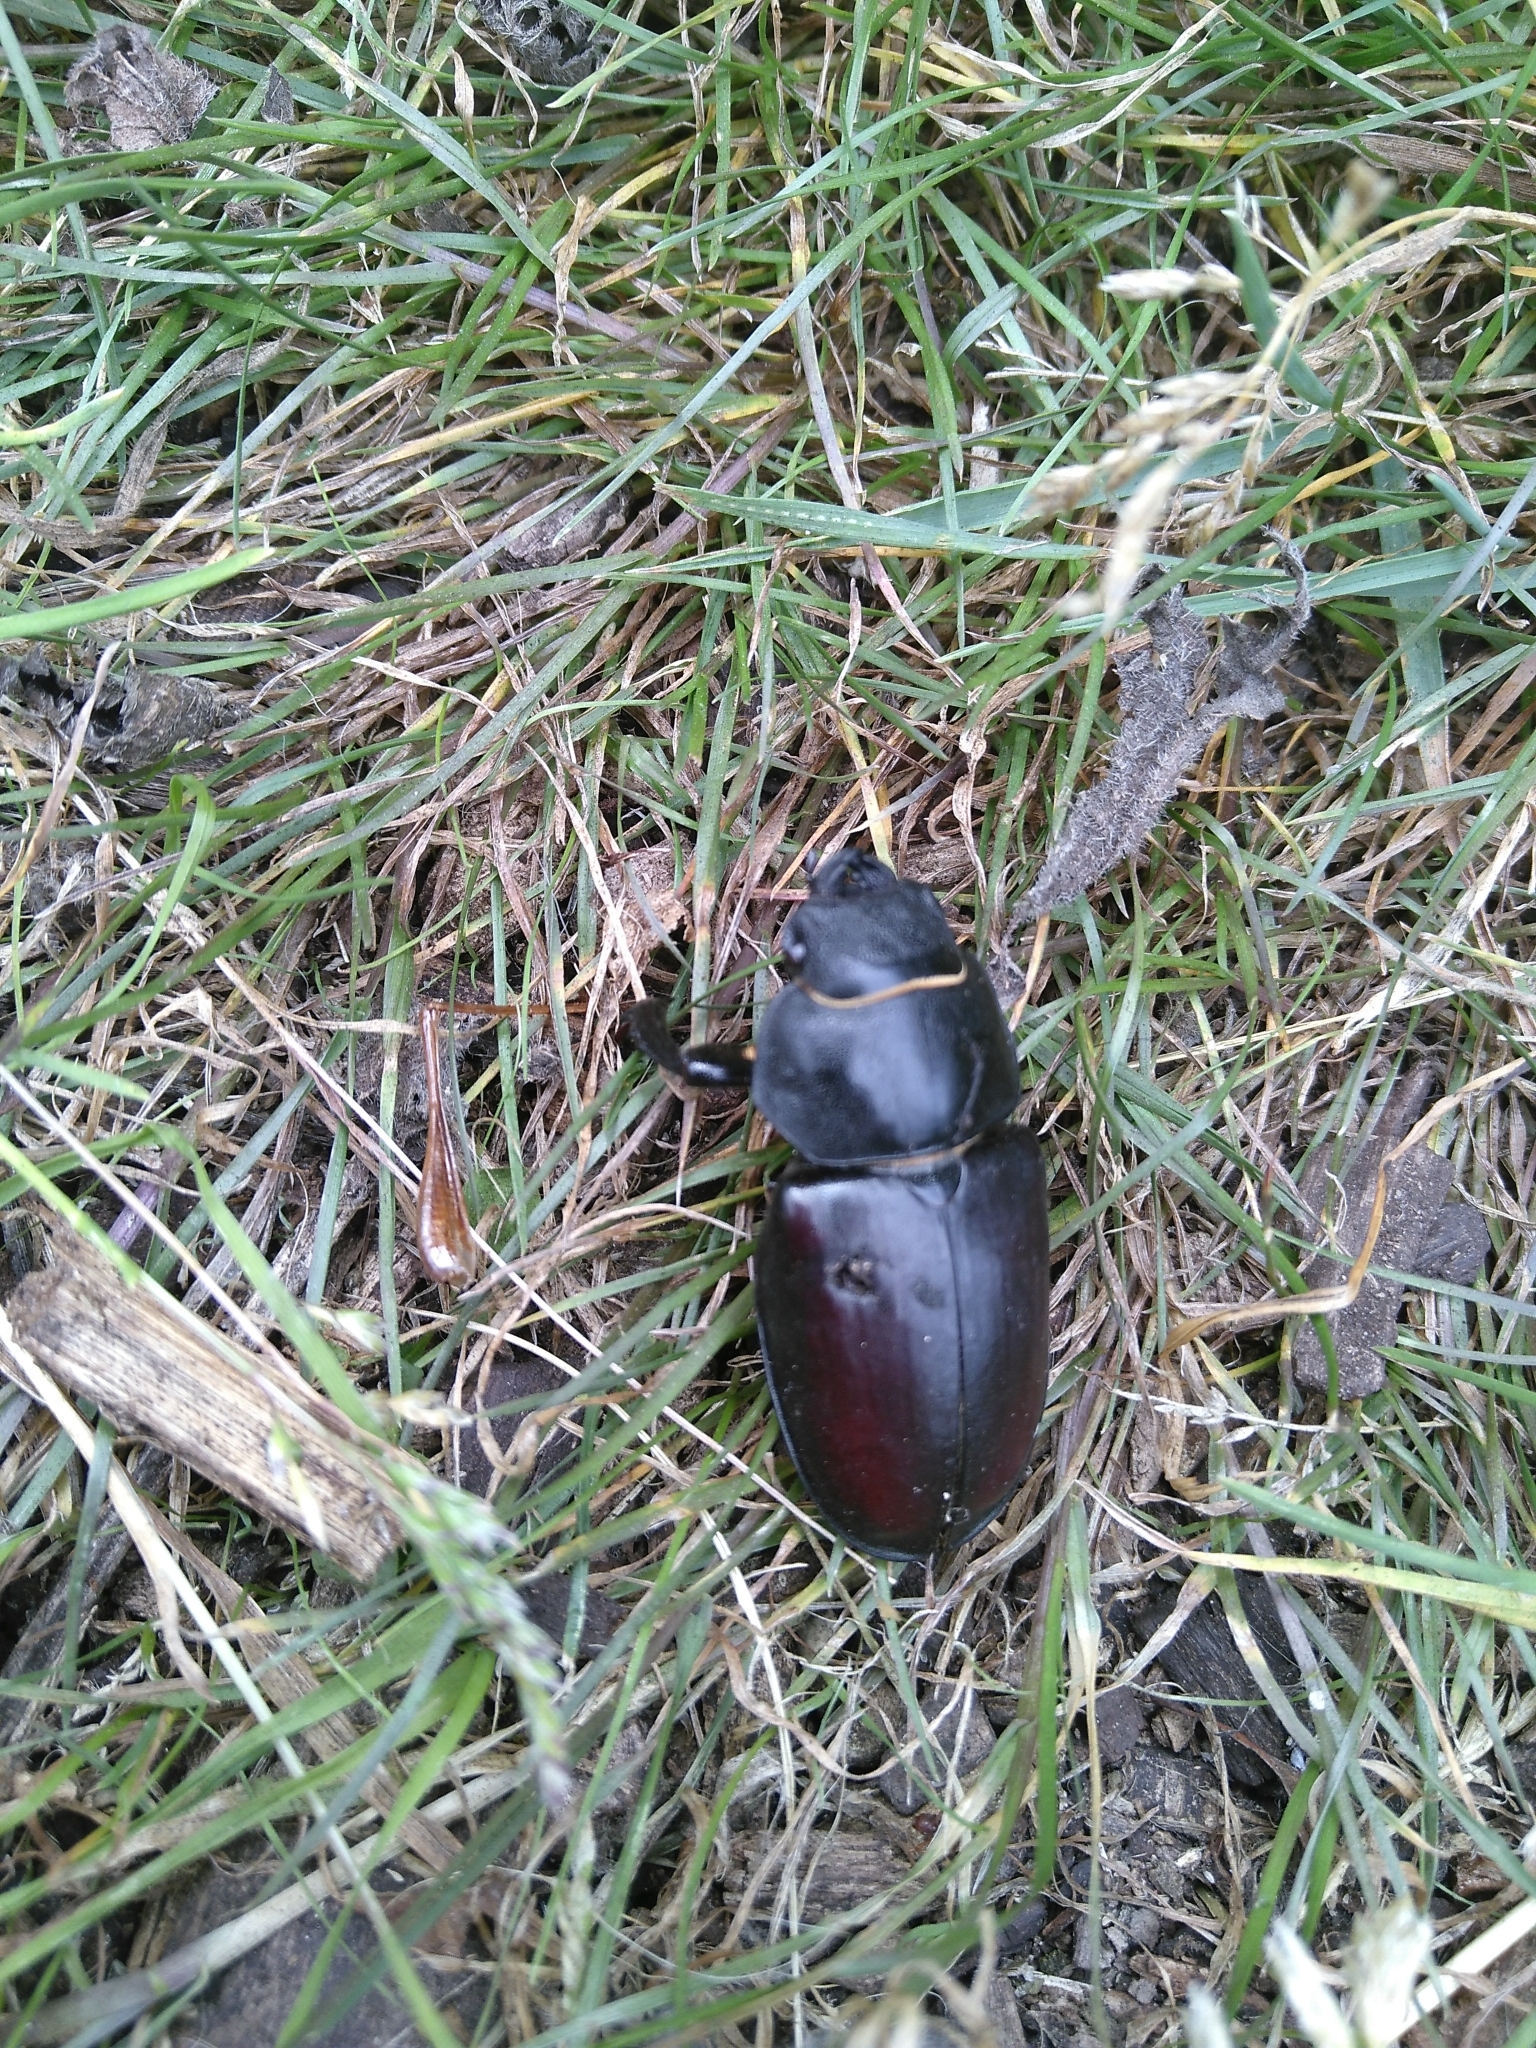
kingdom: Animalia
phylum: Arthropoda
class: Insecta
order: Coleoptera
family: Lucanidae
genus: Lucanus
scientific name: Lucanus cervus
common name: Stag beetle
